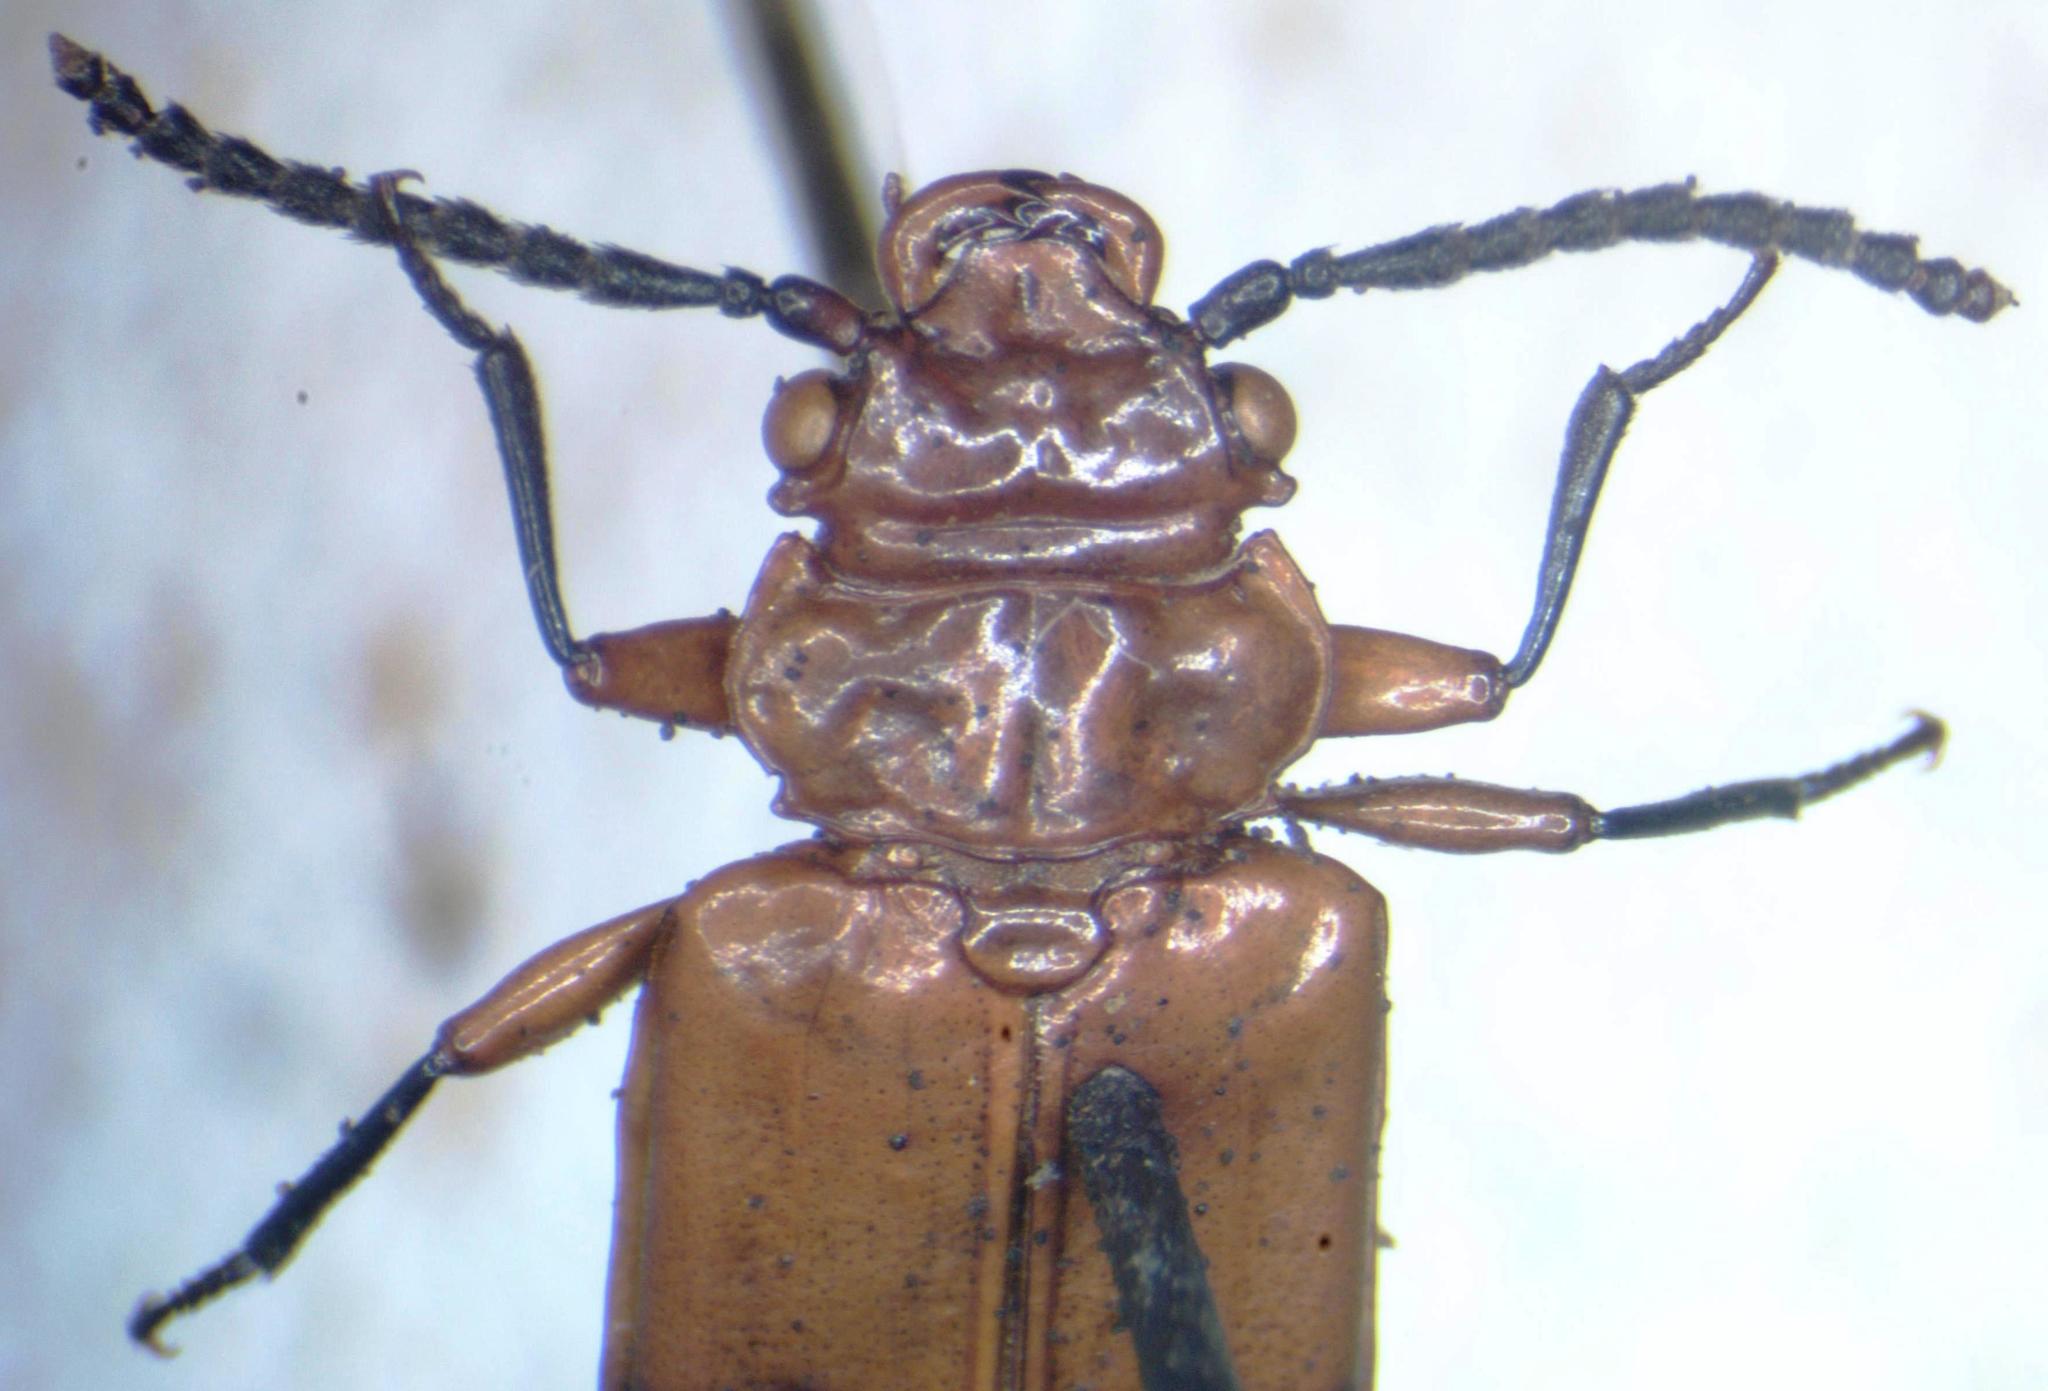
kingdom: Animalia
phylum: Arthropoda
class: Insecta
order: Coleoptera
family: Cucujidae
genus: Palaestes
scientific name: Palaestes
